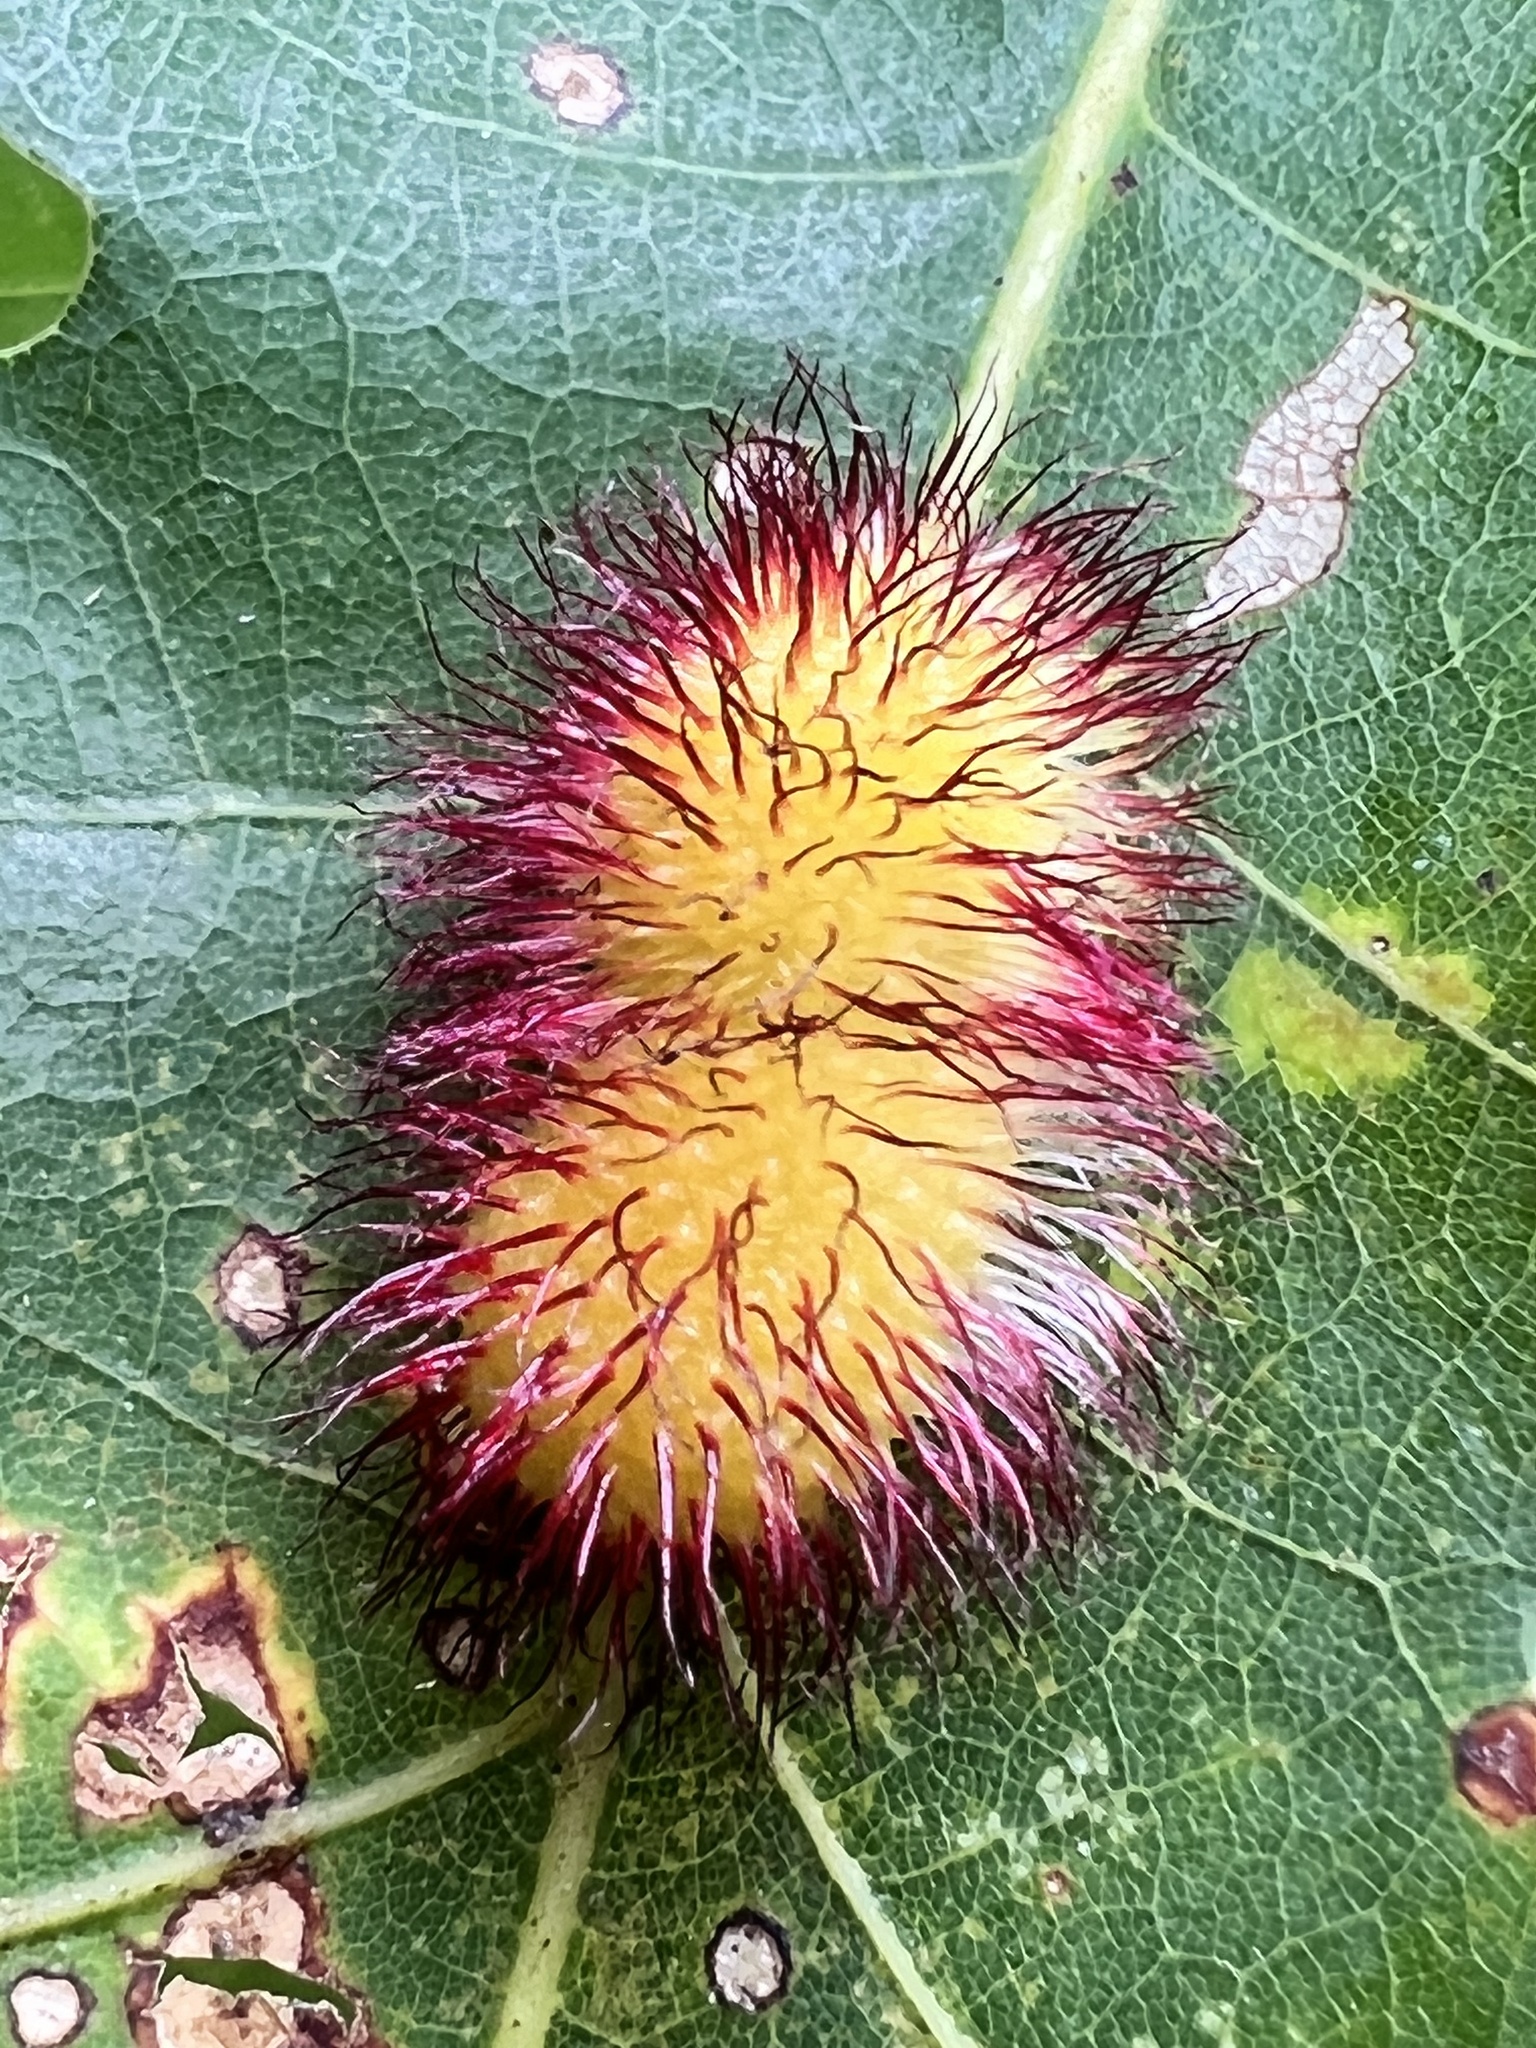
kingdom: Animalia
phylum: Arthropoda
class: Insecta
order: Hymenoptera
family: Cynipidae
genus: Acraspis
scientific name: Acraspis erinacei
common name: Hedgehog gall wasp
